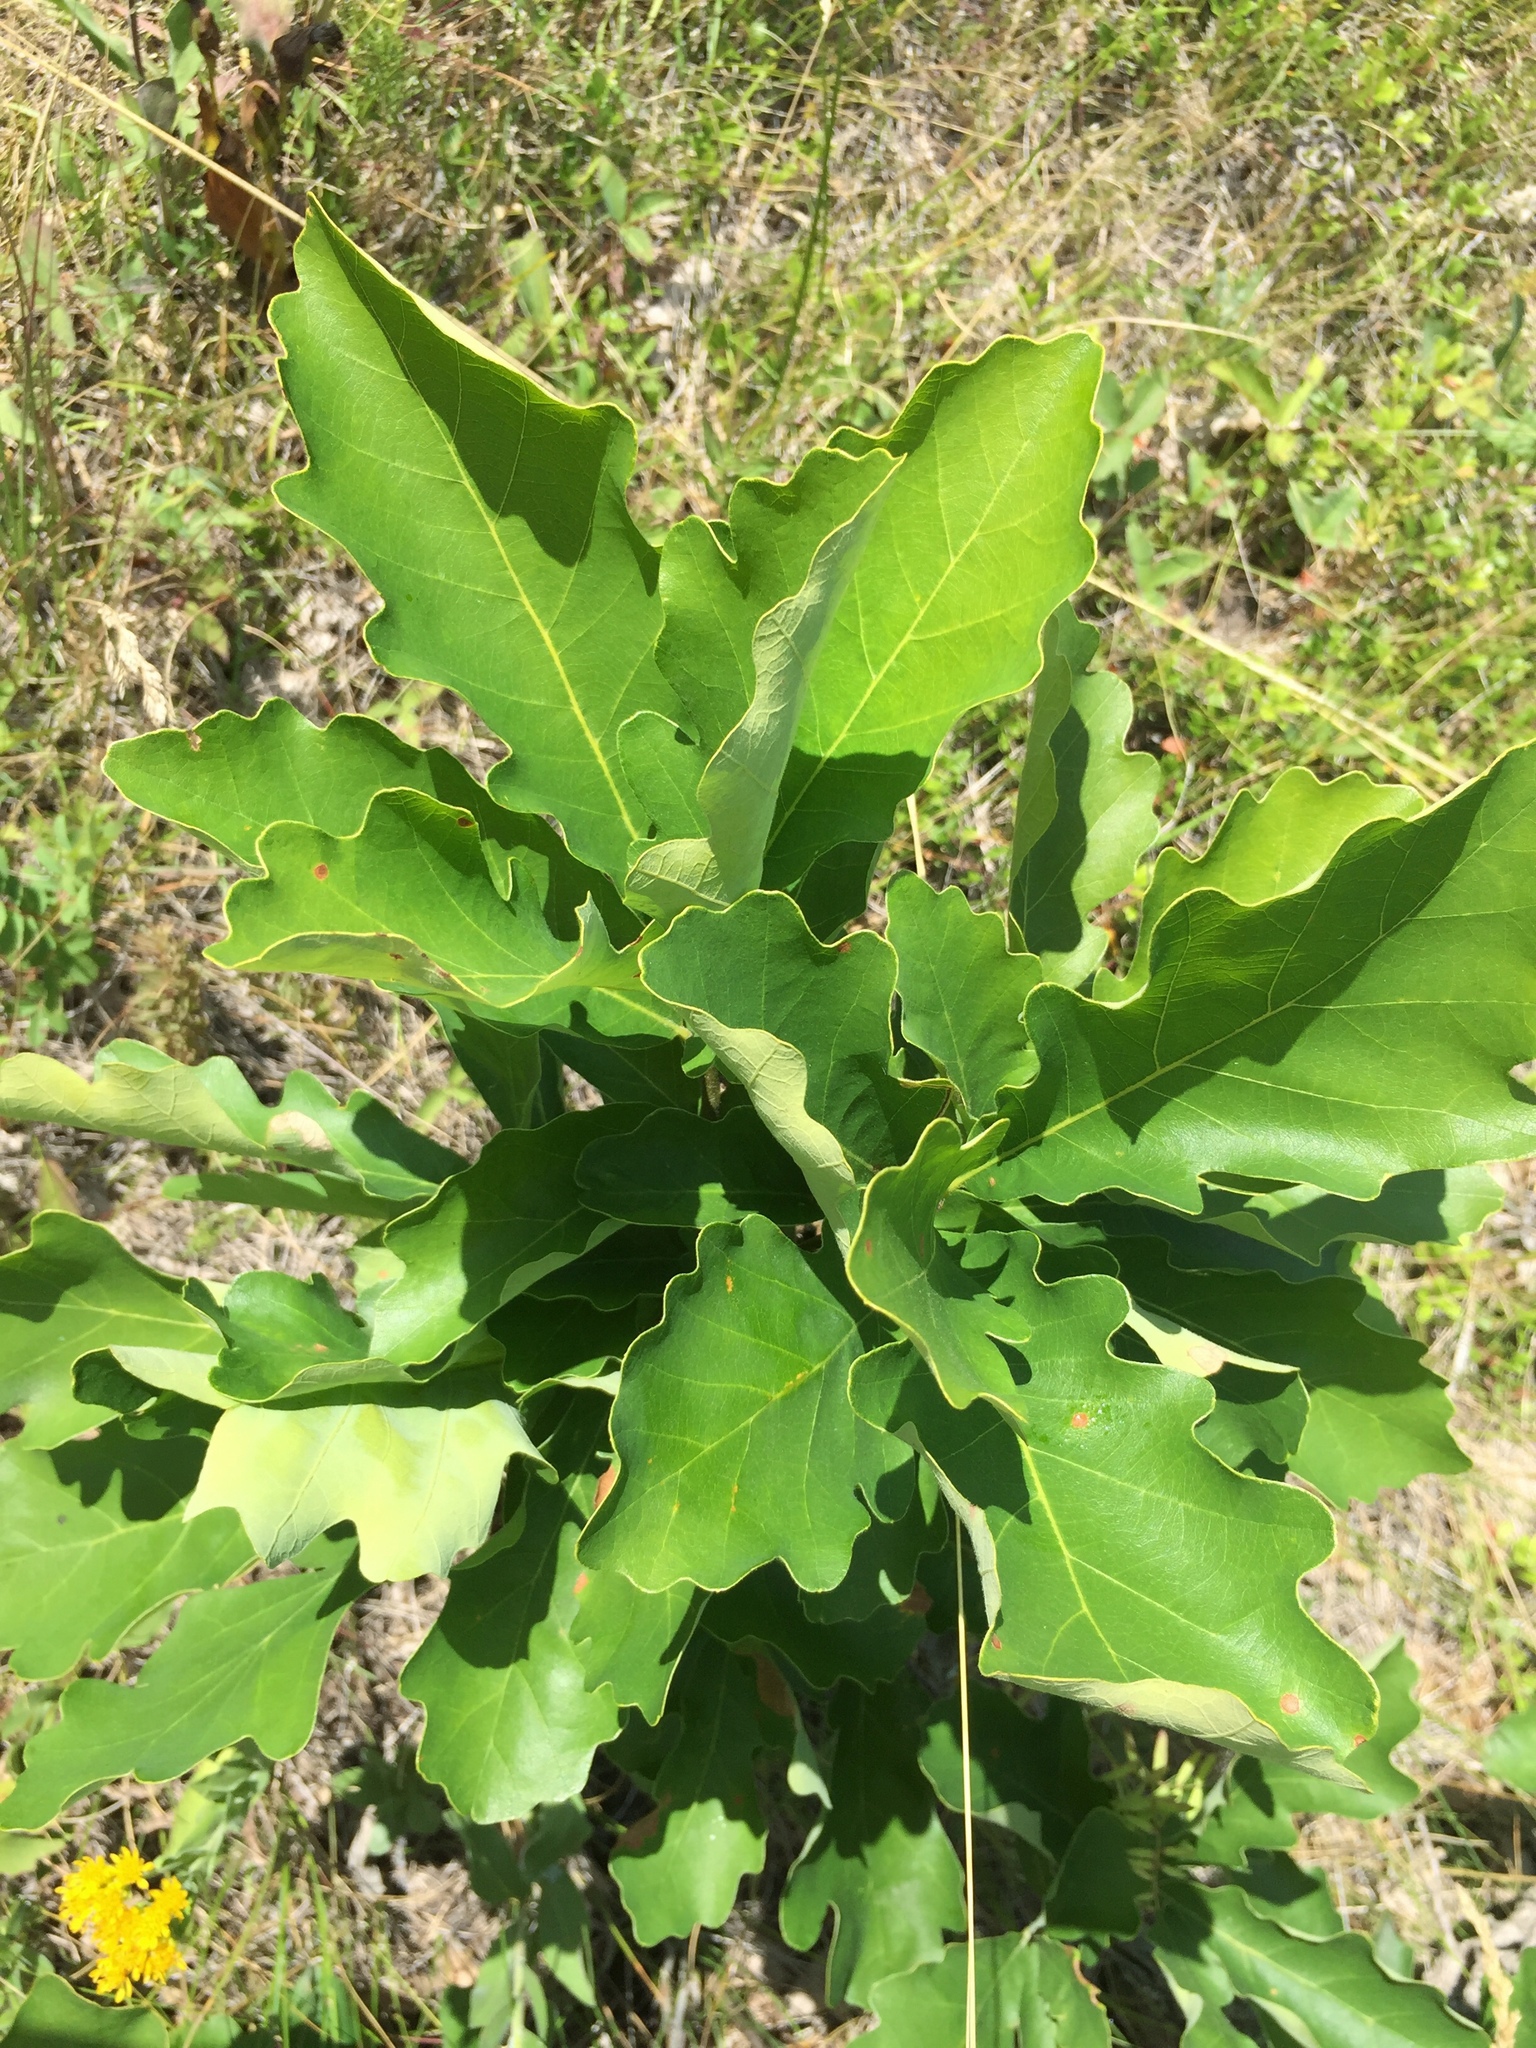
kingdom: Plantae
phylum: Tracheophyta
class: Magnoliopsida
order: Fagales
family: Fagaceae
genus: Quercus
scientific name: Quercus macrocarpa
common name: Bur oak
